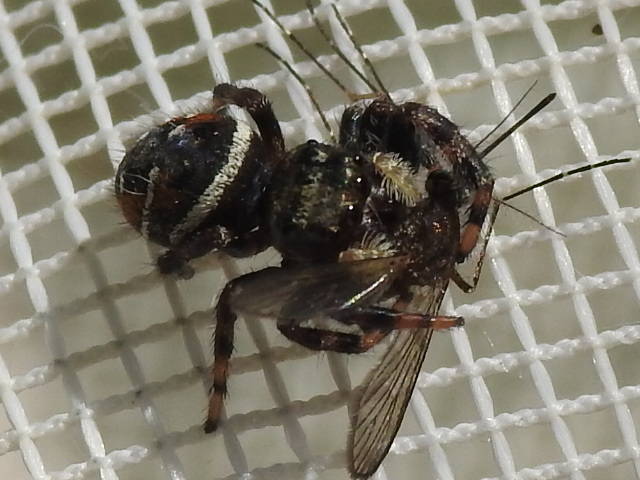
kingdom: Animalia
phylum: Arthropoda
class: Arachnida
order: Araneae
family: Salticidae
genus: Phidippus
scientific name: Phidippus clarus
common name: Brilliant jumping spider
